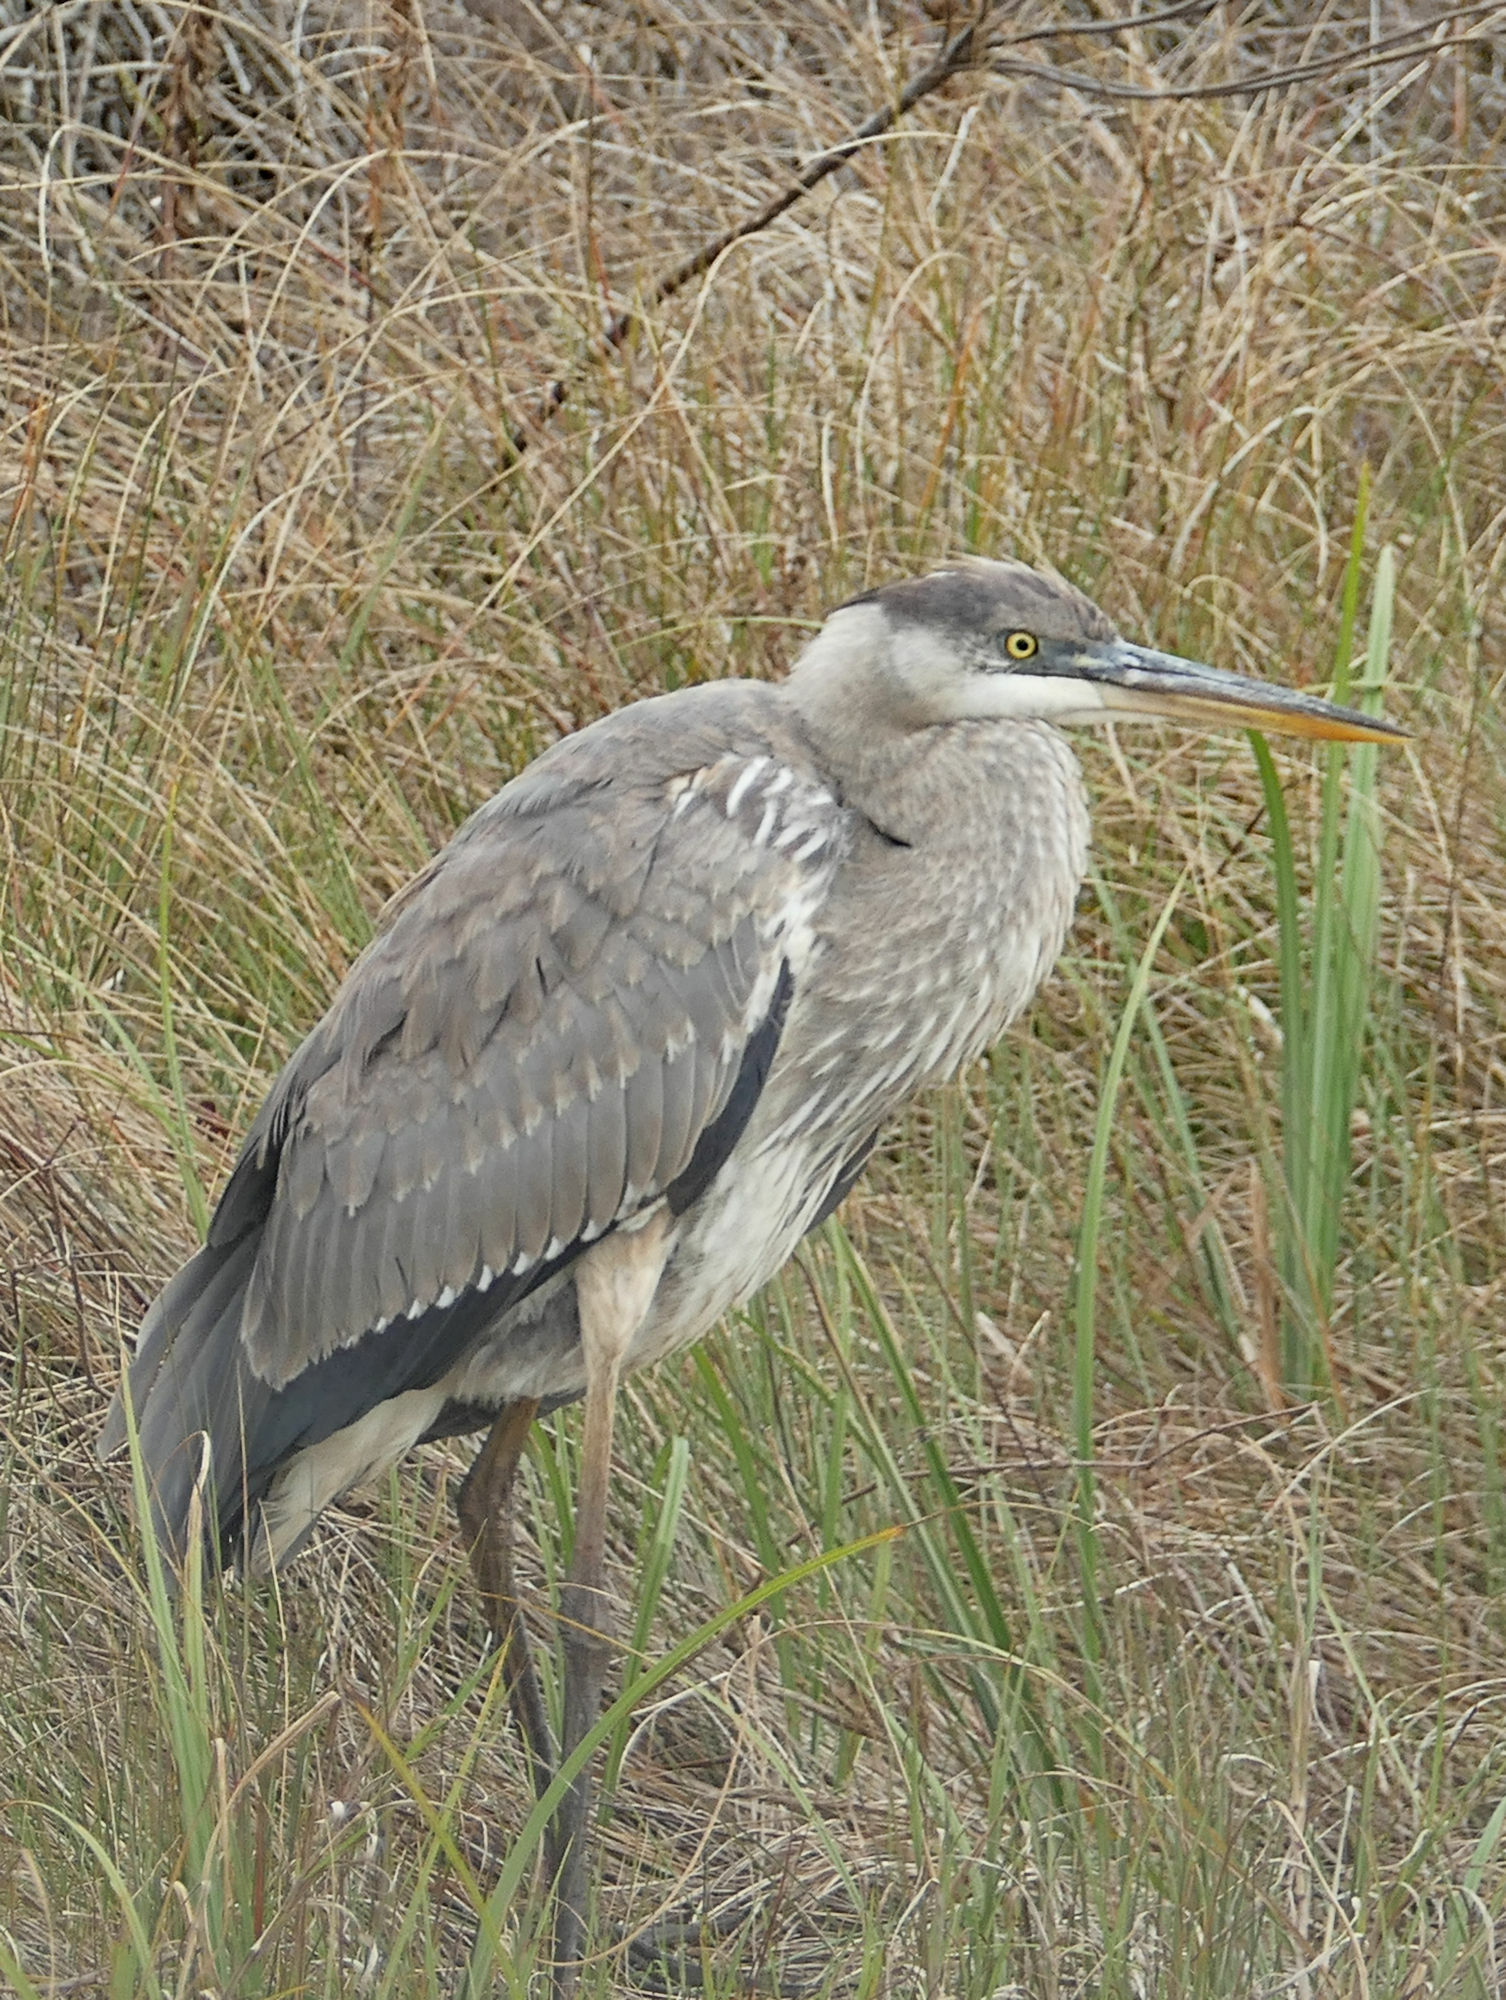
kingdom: Animalia
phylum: Chordata
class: Aves
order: Pelecaniformes
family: Ardeidae
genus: Ardea
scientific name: Ardea herodias
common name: Great blue heron
